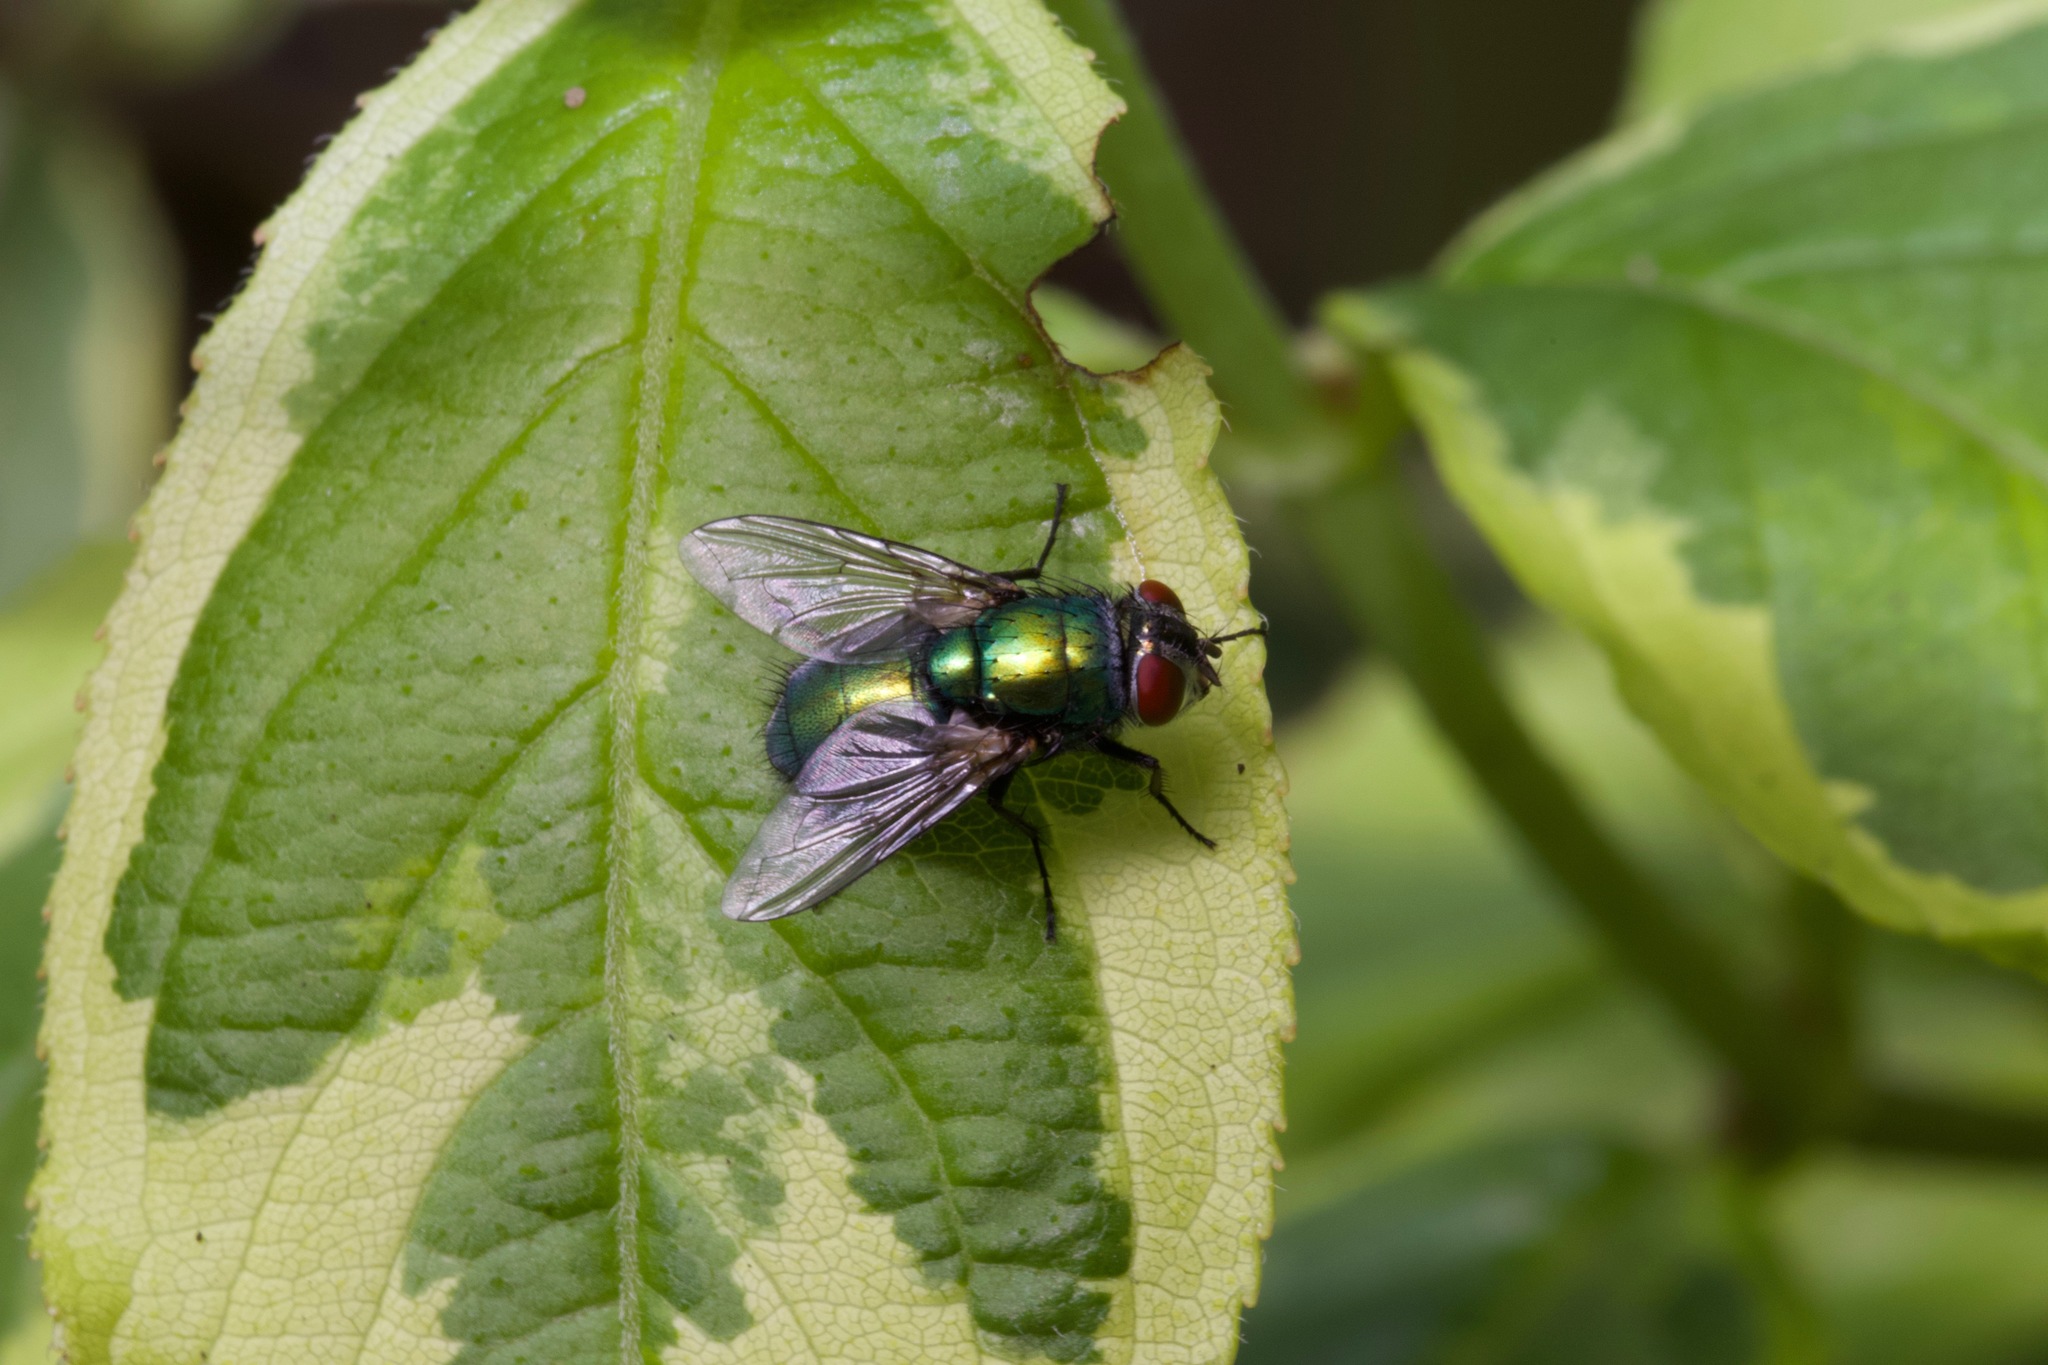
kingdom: Animalia
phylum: Arthropoda
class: Insecta
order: Diptera
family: Calliphoridae
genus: Lucilia
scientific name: Lucilia sericata
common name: Blow fly
